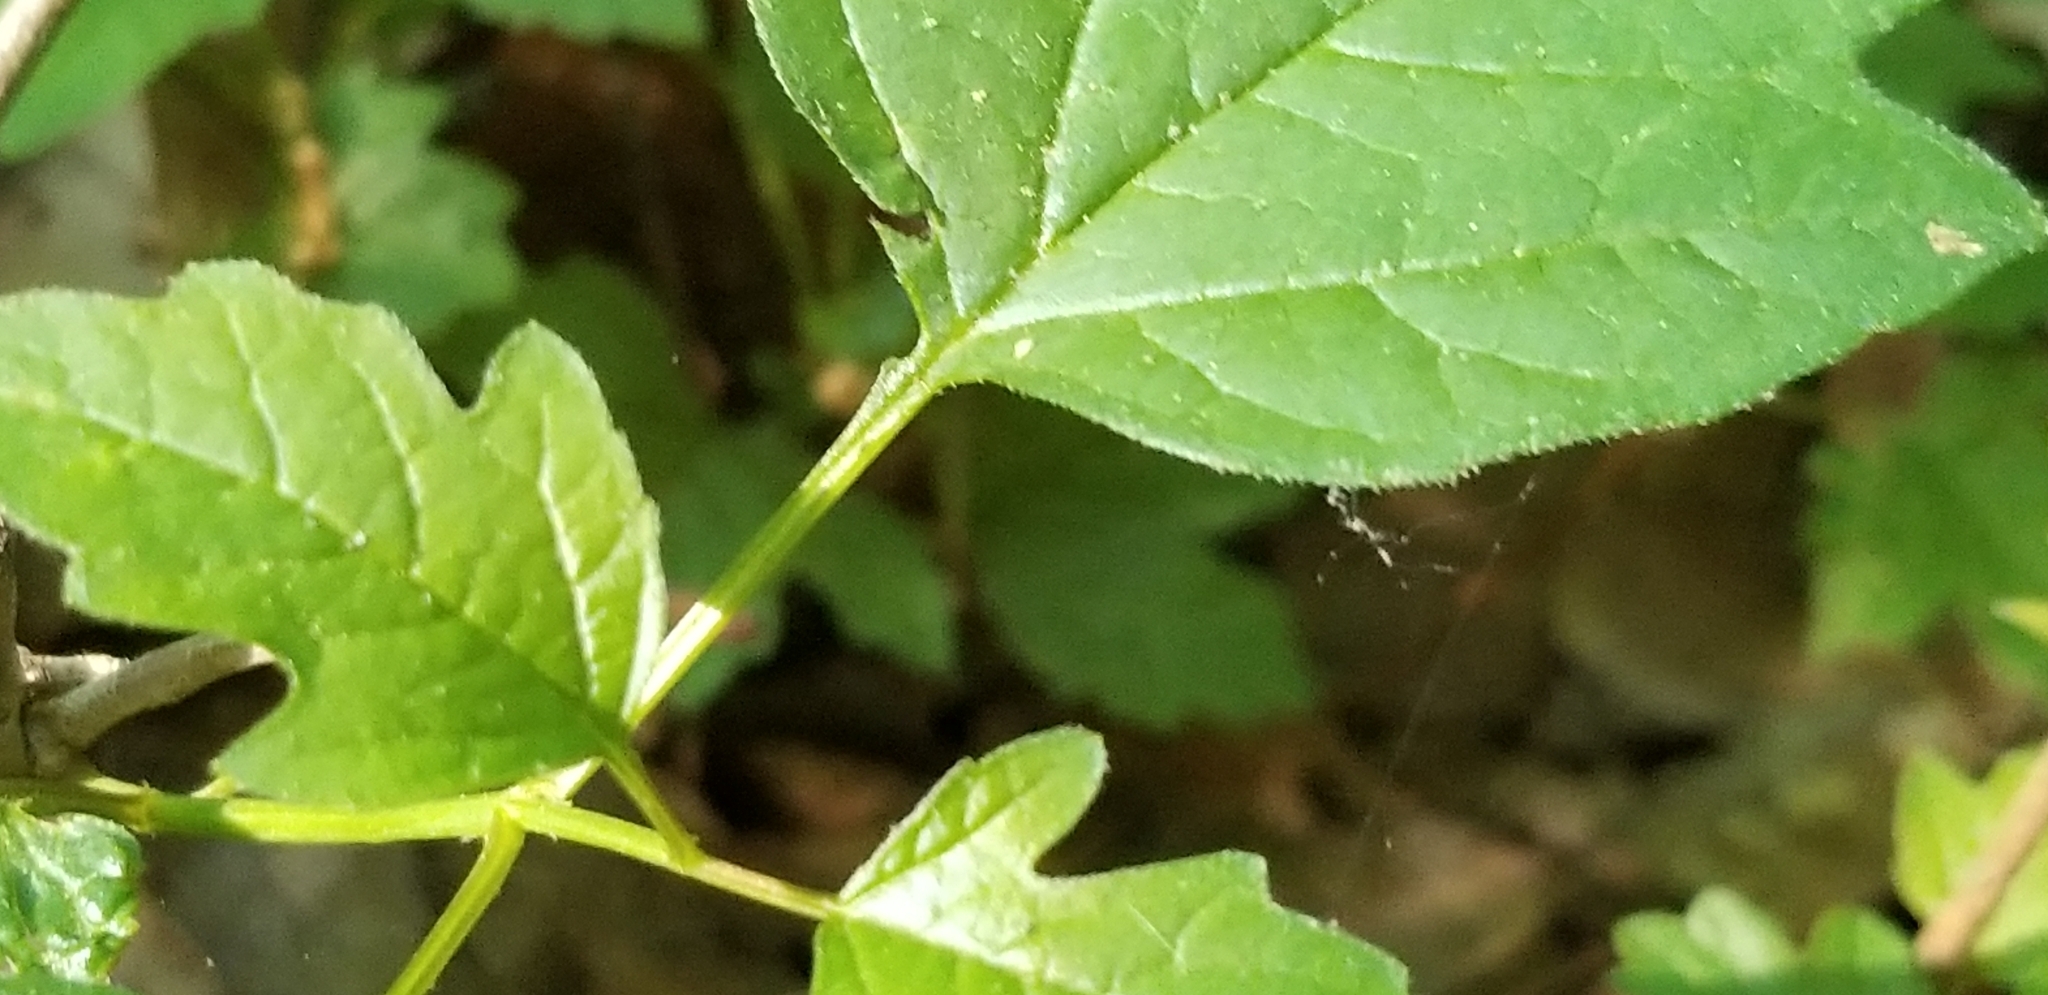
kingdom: Plantae
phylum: Tracheophyta
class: Magnoliopsida
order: Dipsacales
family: Viburnaceae
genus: Viburnum
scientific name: Viburnum opulus
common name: Guelder-rose
